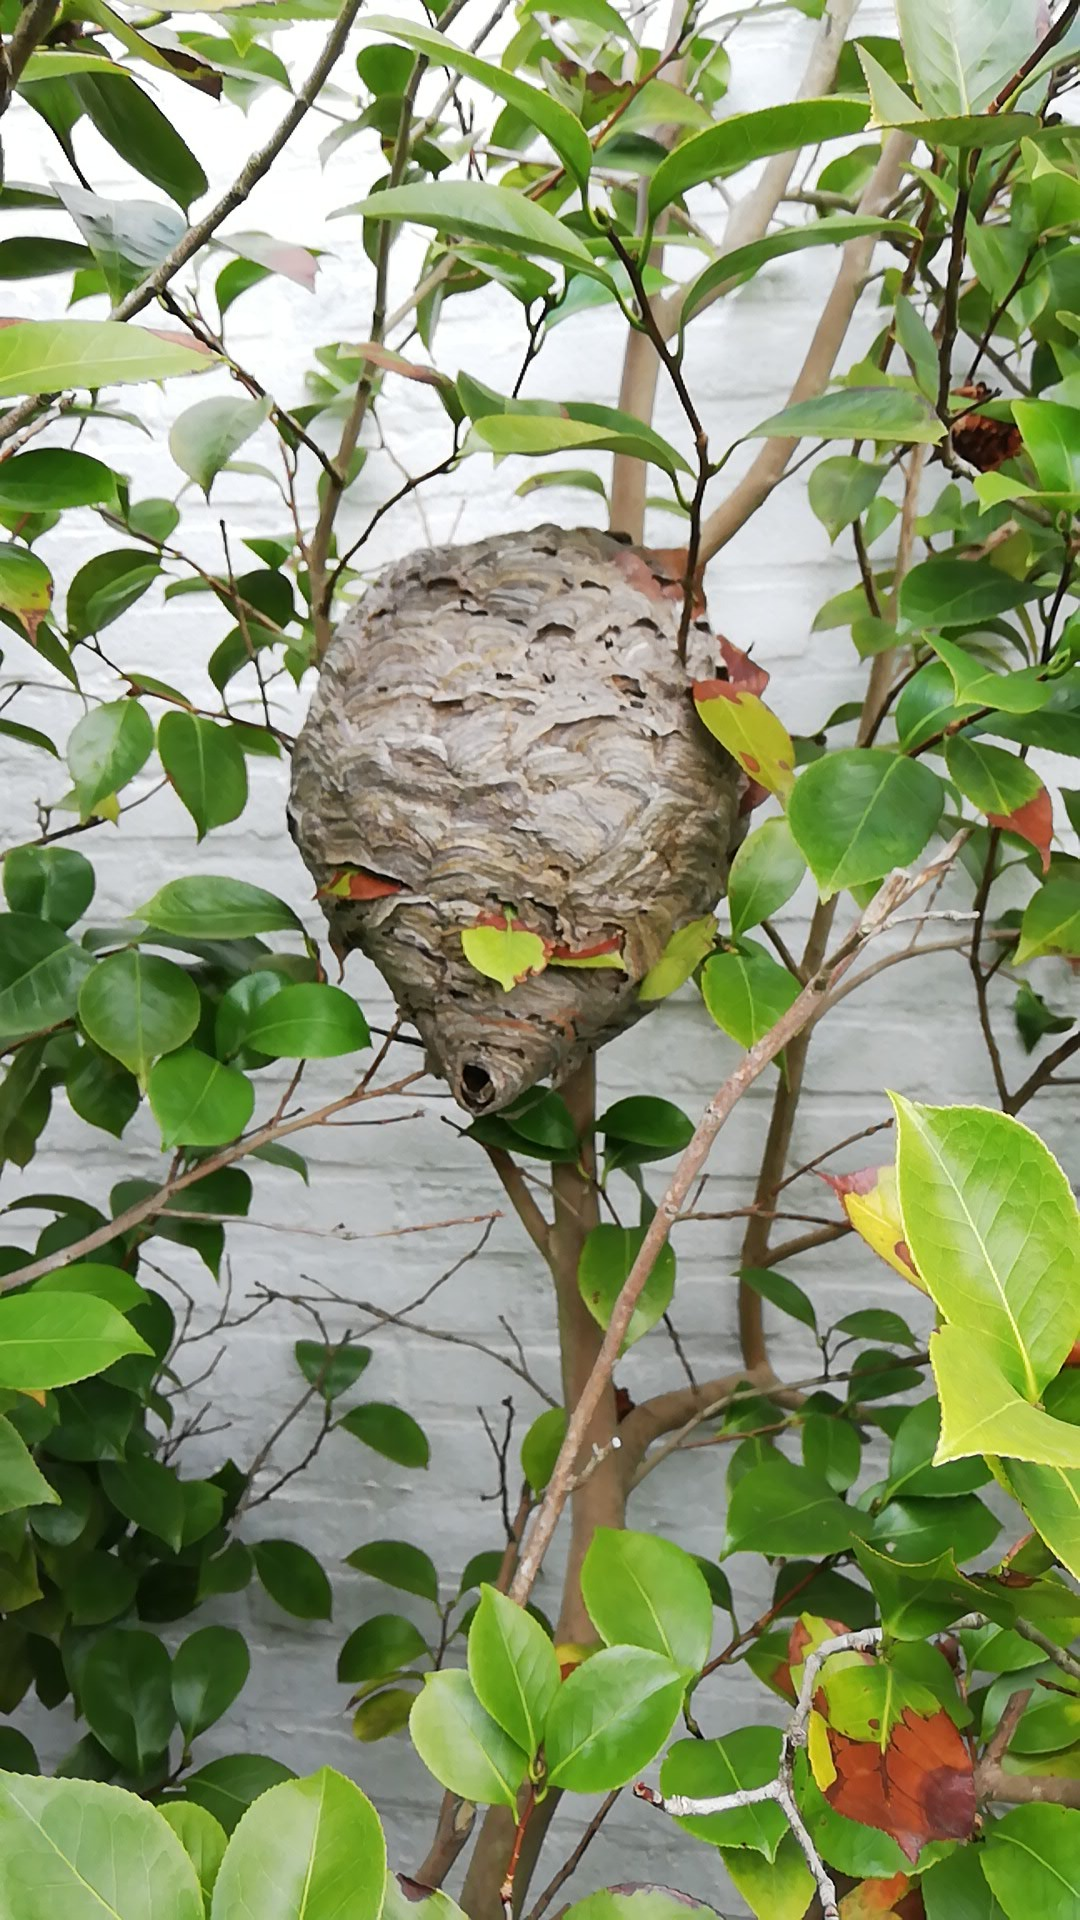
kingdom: Animalia
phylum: Arthropoda
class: Insecta
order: Hymenoptera
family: Vespidae
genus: Dolichovespula
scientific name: Dolichovespula media
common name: Median wasp
